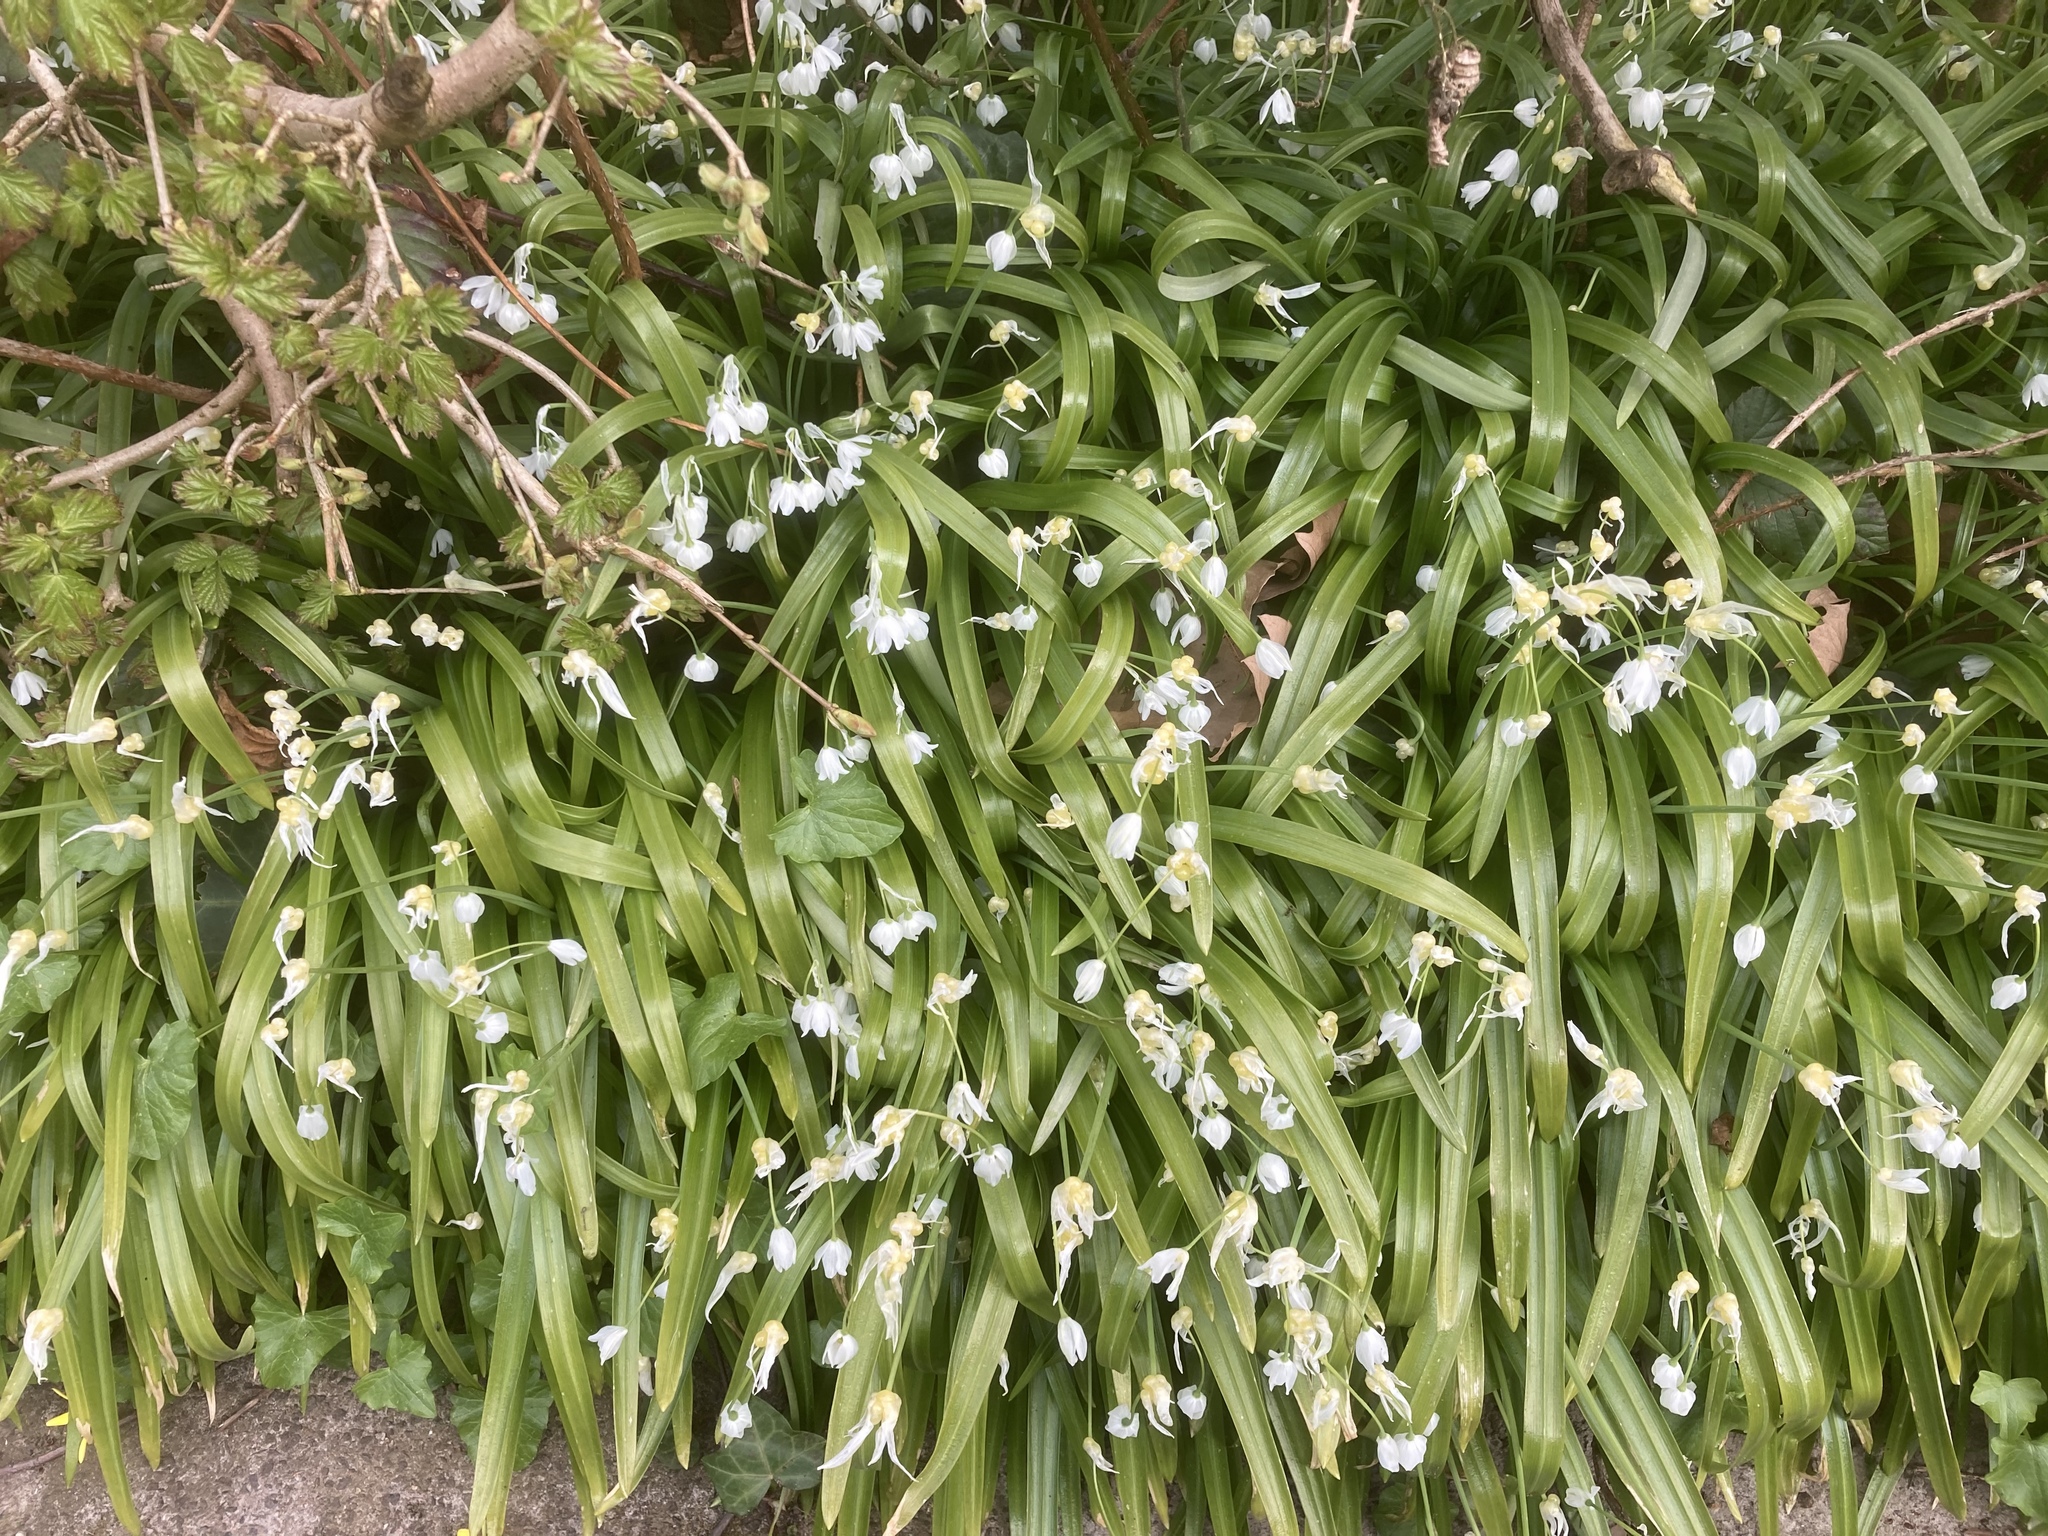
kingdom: Plantae
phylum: Tracheophyta
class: Liliopsida
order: Asparagales
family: Amaryllidaceae
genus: Allium
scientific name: Allium paradoxum
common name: Few-flowered garlic
